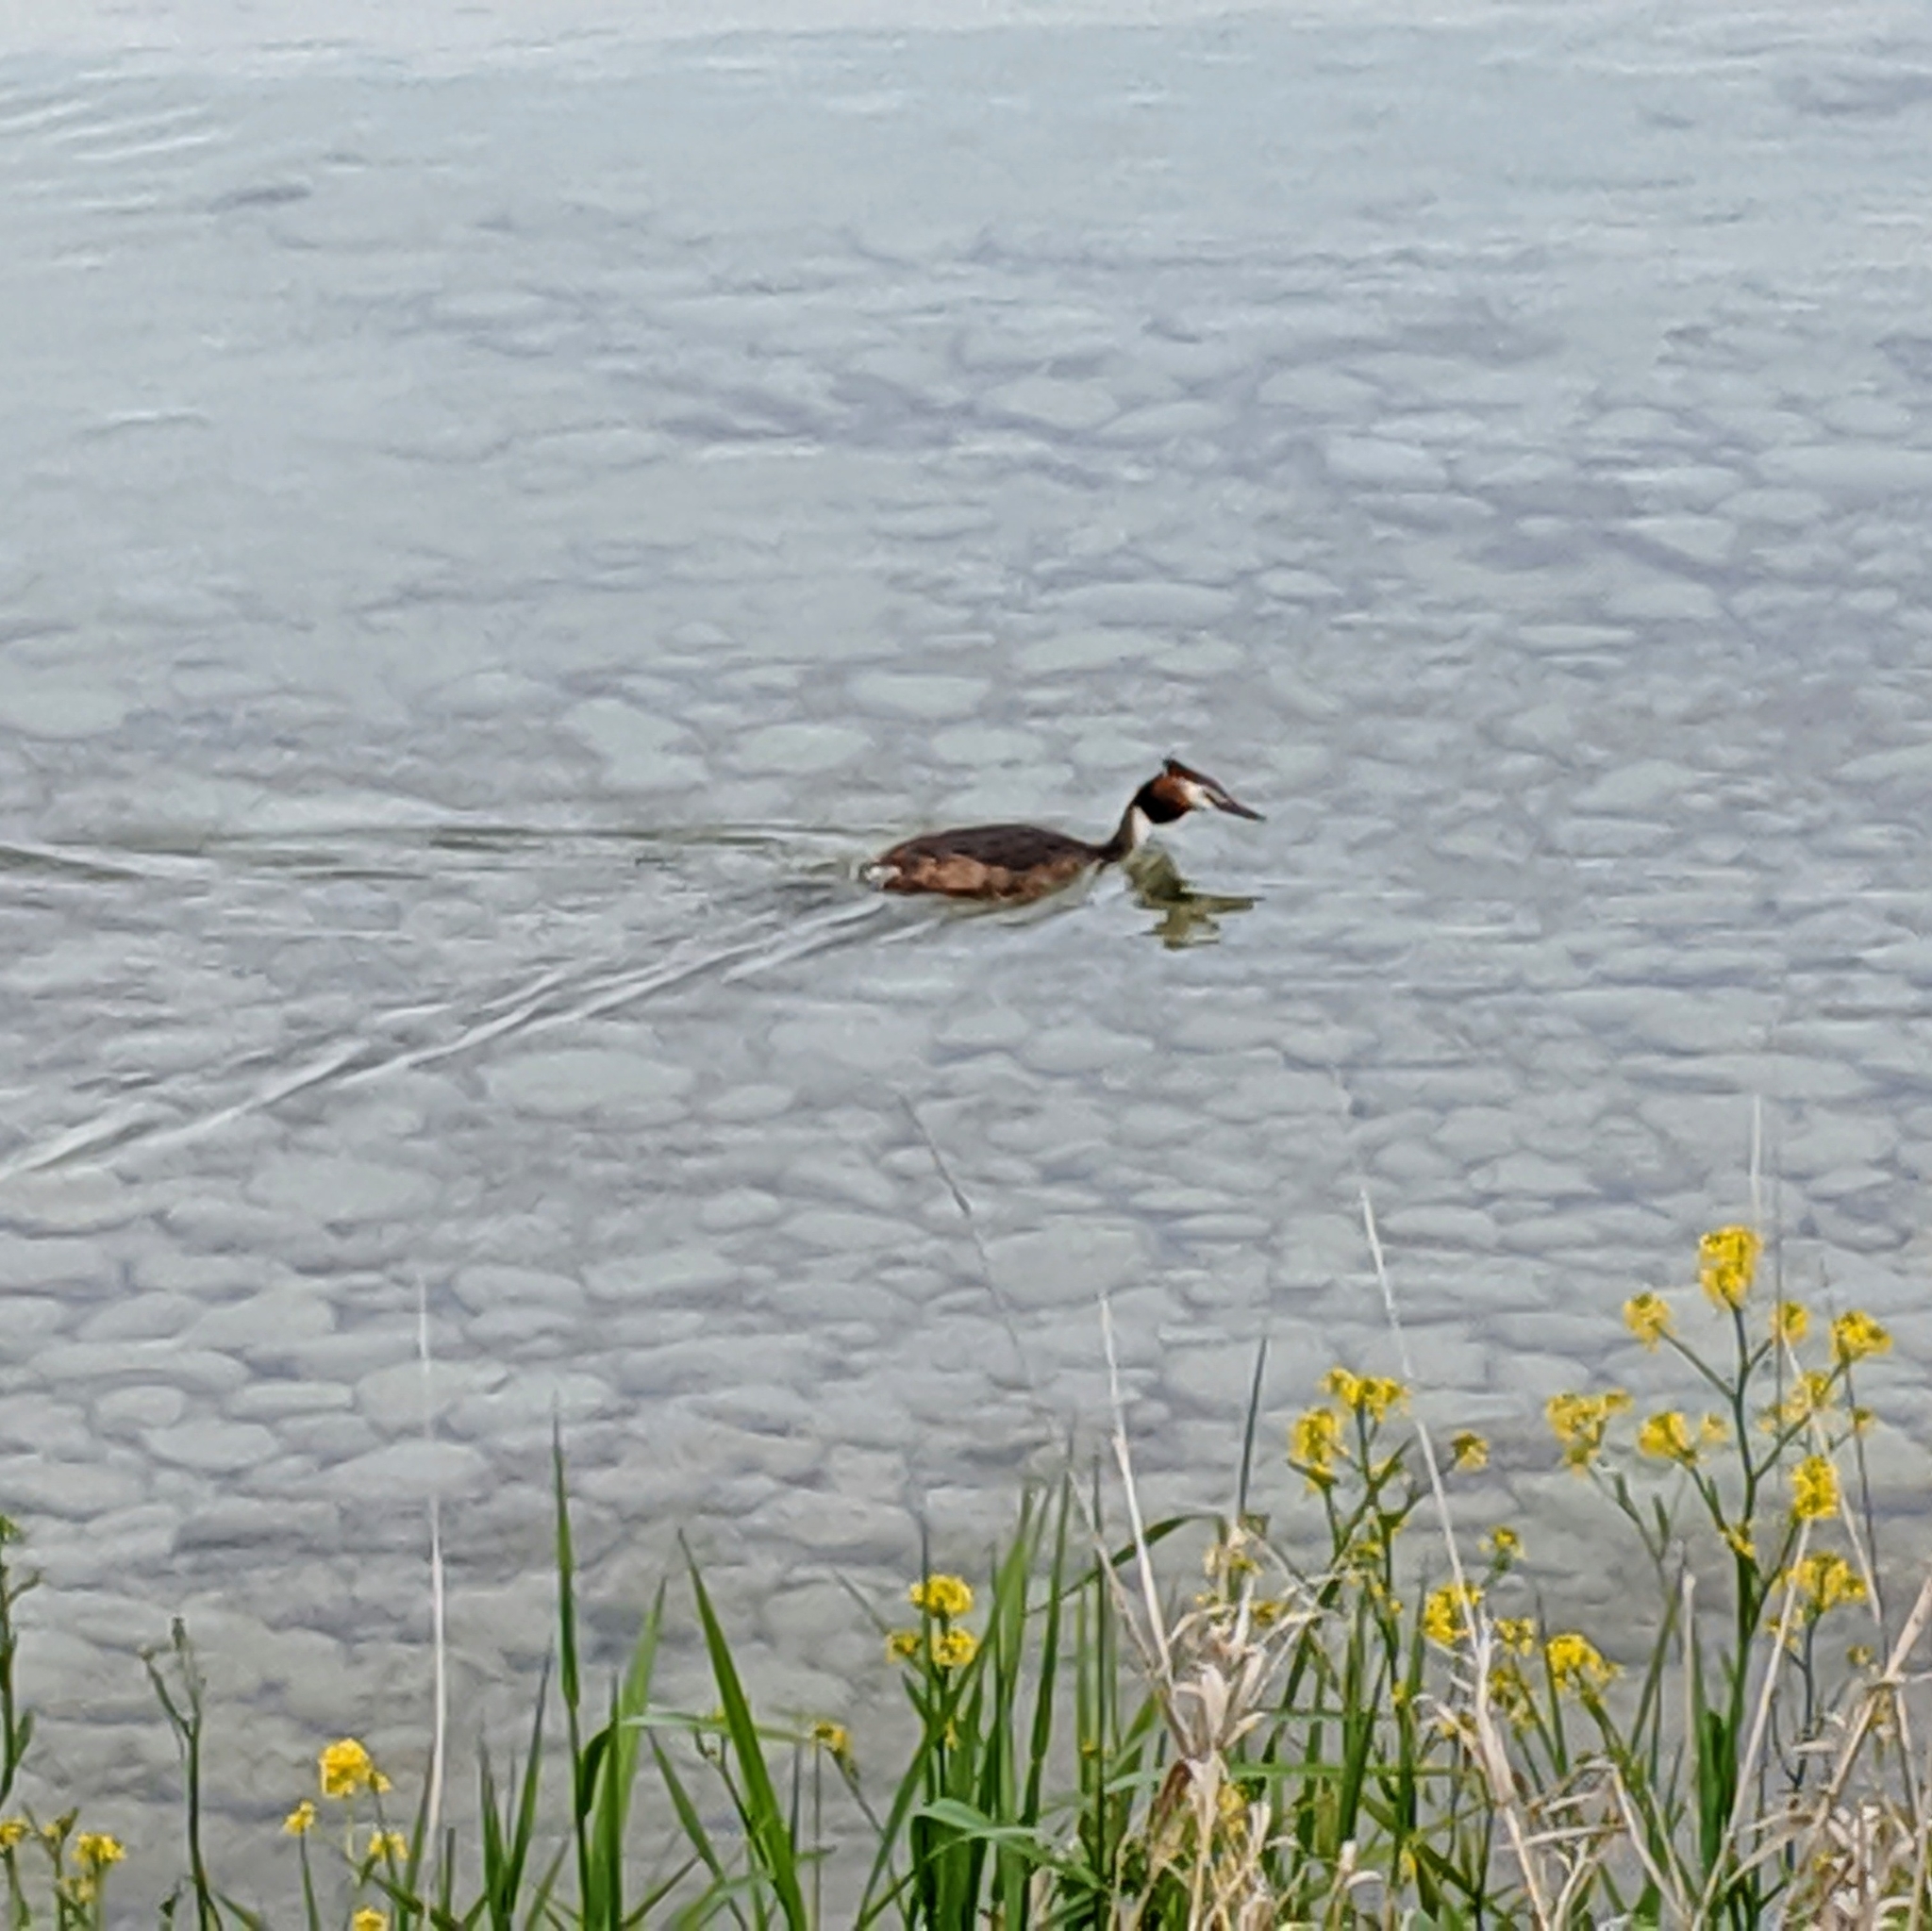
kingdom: Animalia
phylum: Chordata
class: Aves
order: Podicipediformes
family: Podicipedidae
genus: Podiceps
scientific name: Podiceps cristatus
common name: Great crested grebe
